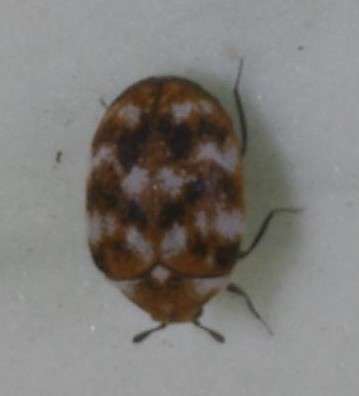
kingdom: Animalia
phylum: Arthropoda
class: Insecta
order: Coleoptera
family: Dermestidae
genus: Anthrenus
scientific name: Anthrenus verbasci
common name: Varied carpet beetle
